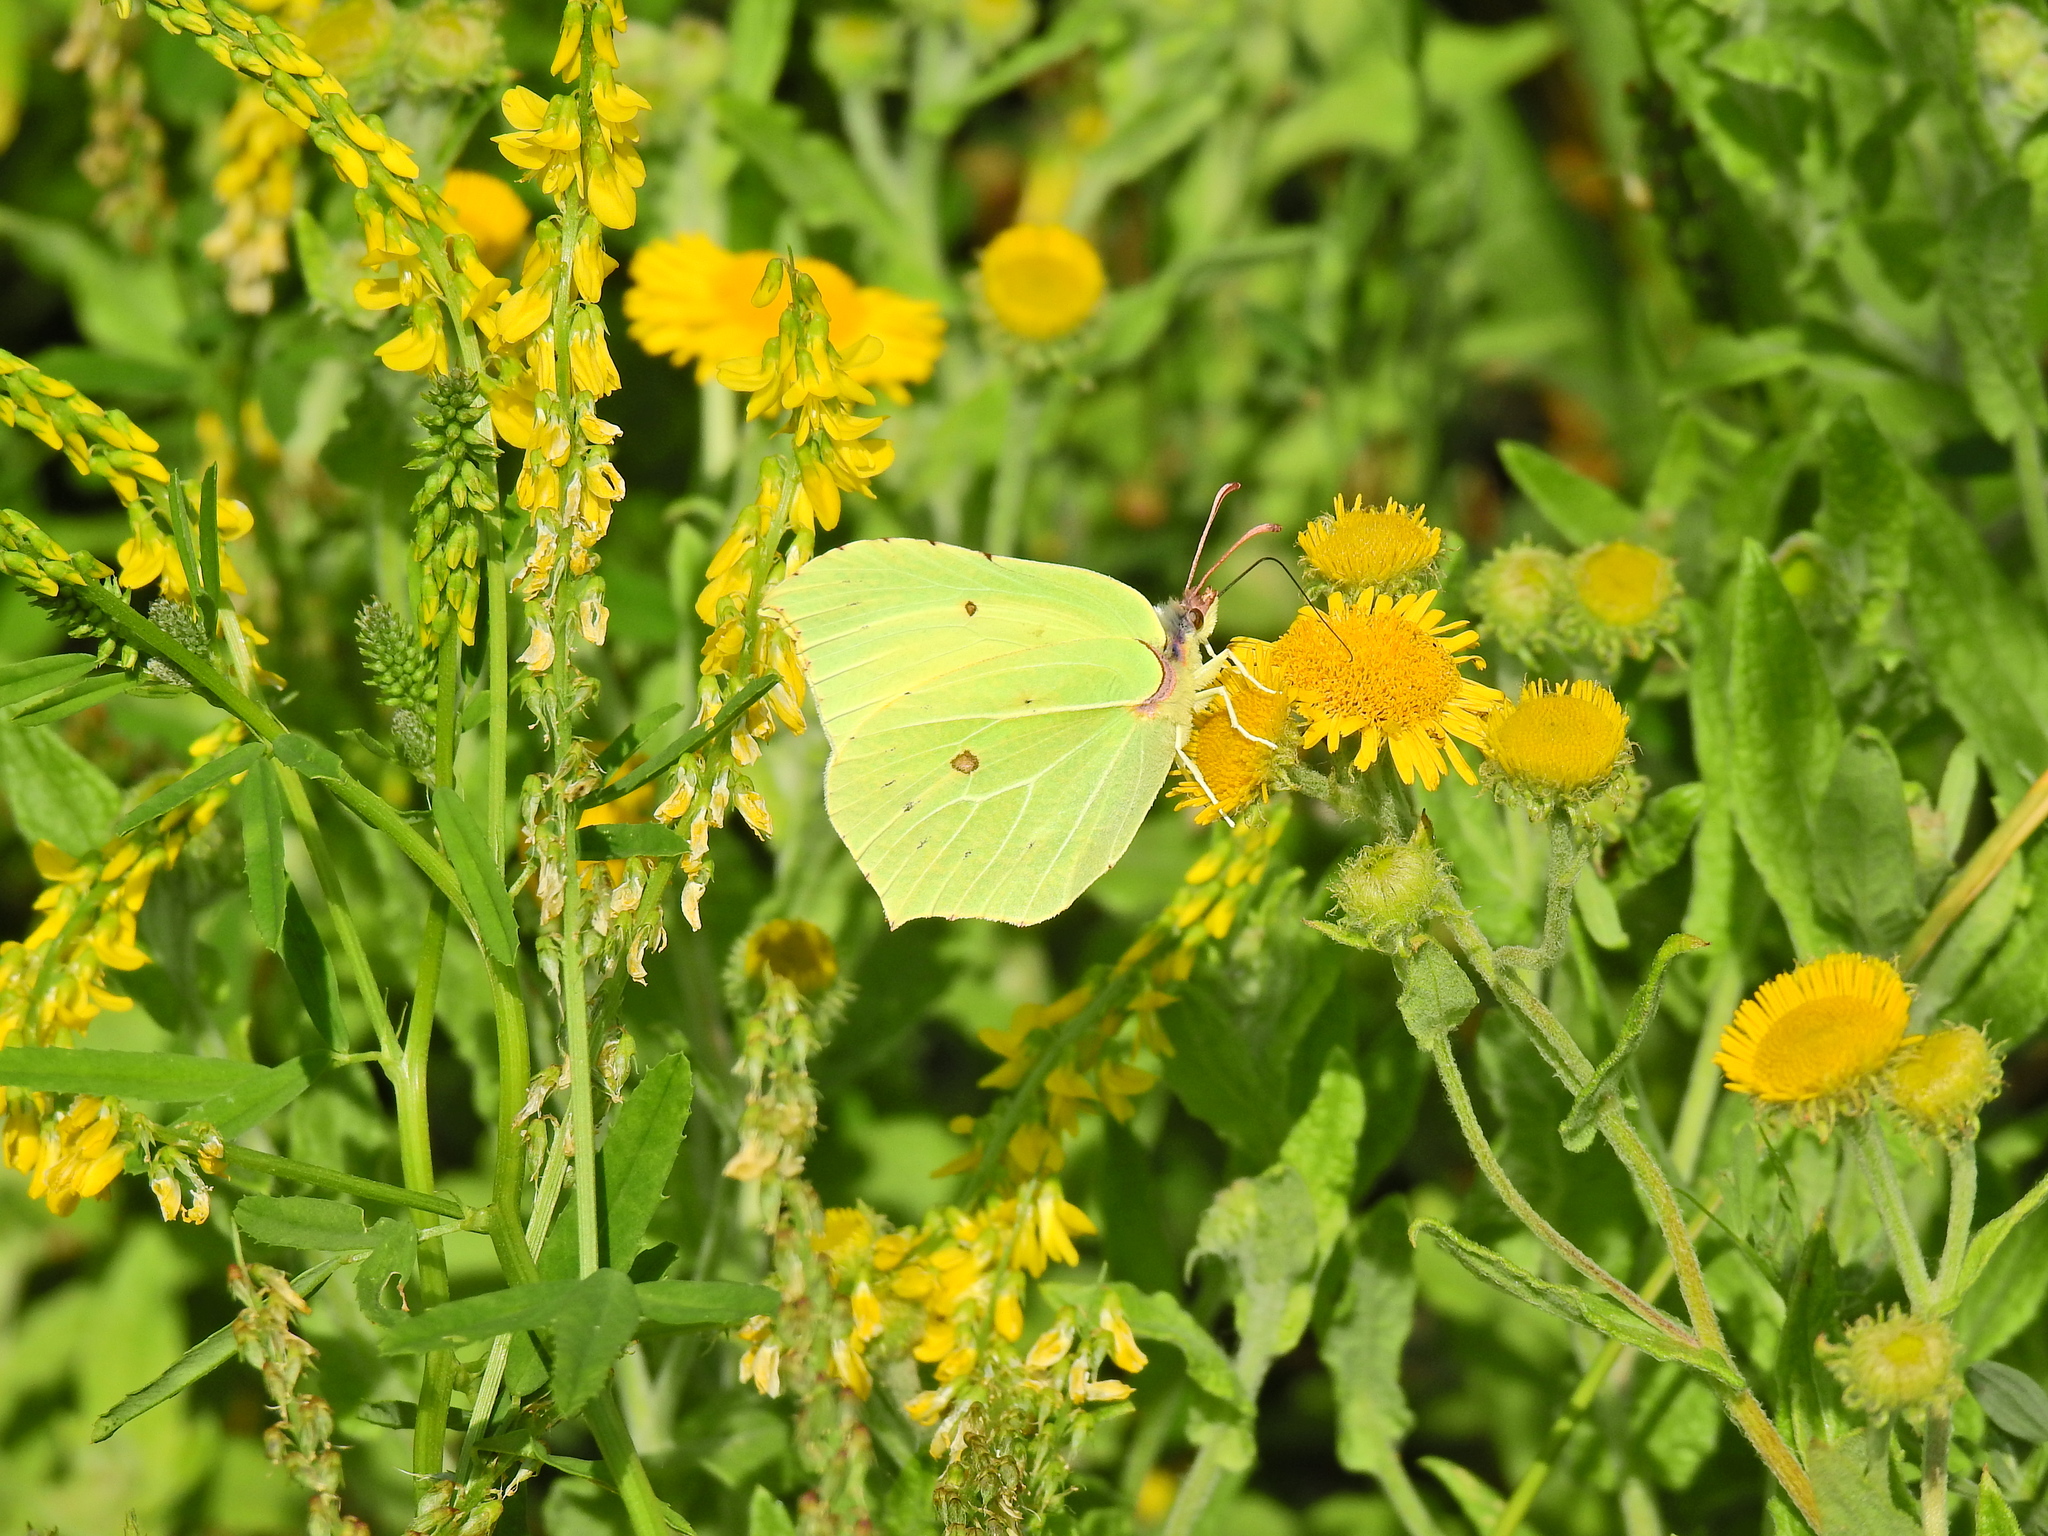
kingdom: Animalia
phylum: Arthropoda
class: Insecta
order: Lepidoptera
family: Pieridae
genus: Gonepteryx
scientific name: Gonepteryx rhamni
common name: Brimstone
